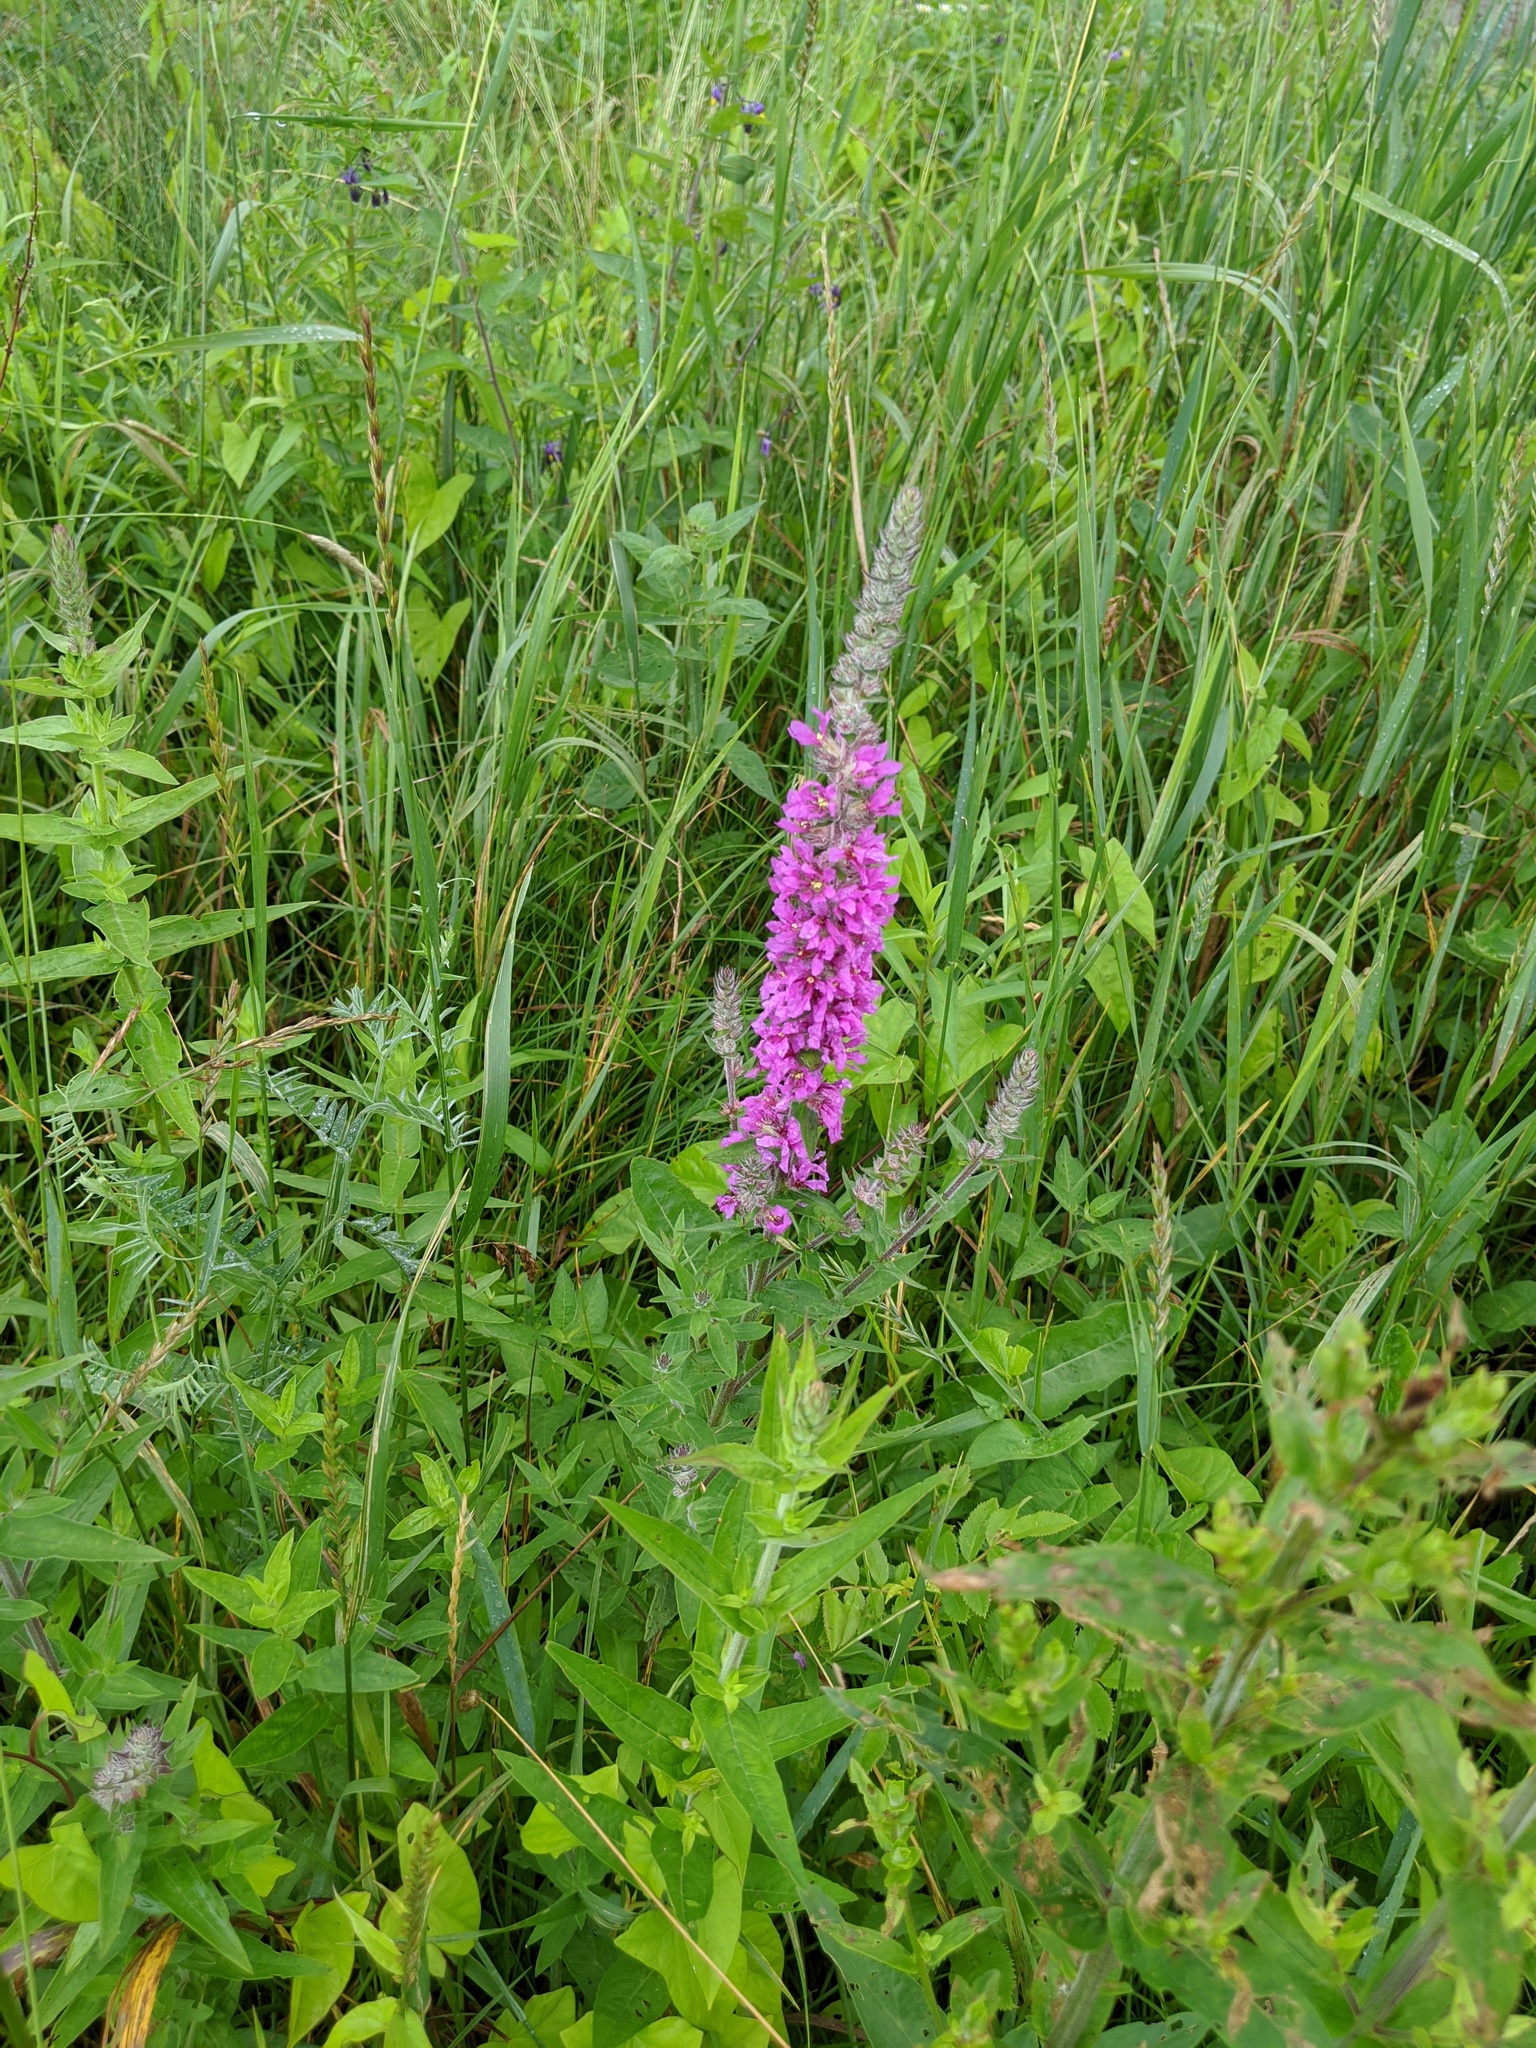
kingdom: Plantae
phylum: Tracheophyta
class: Magnoliopsida
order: Myrtales
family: Lythraceae
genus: Lythrum
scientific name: Lythrum salicaria
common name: Purple loosestrife
